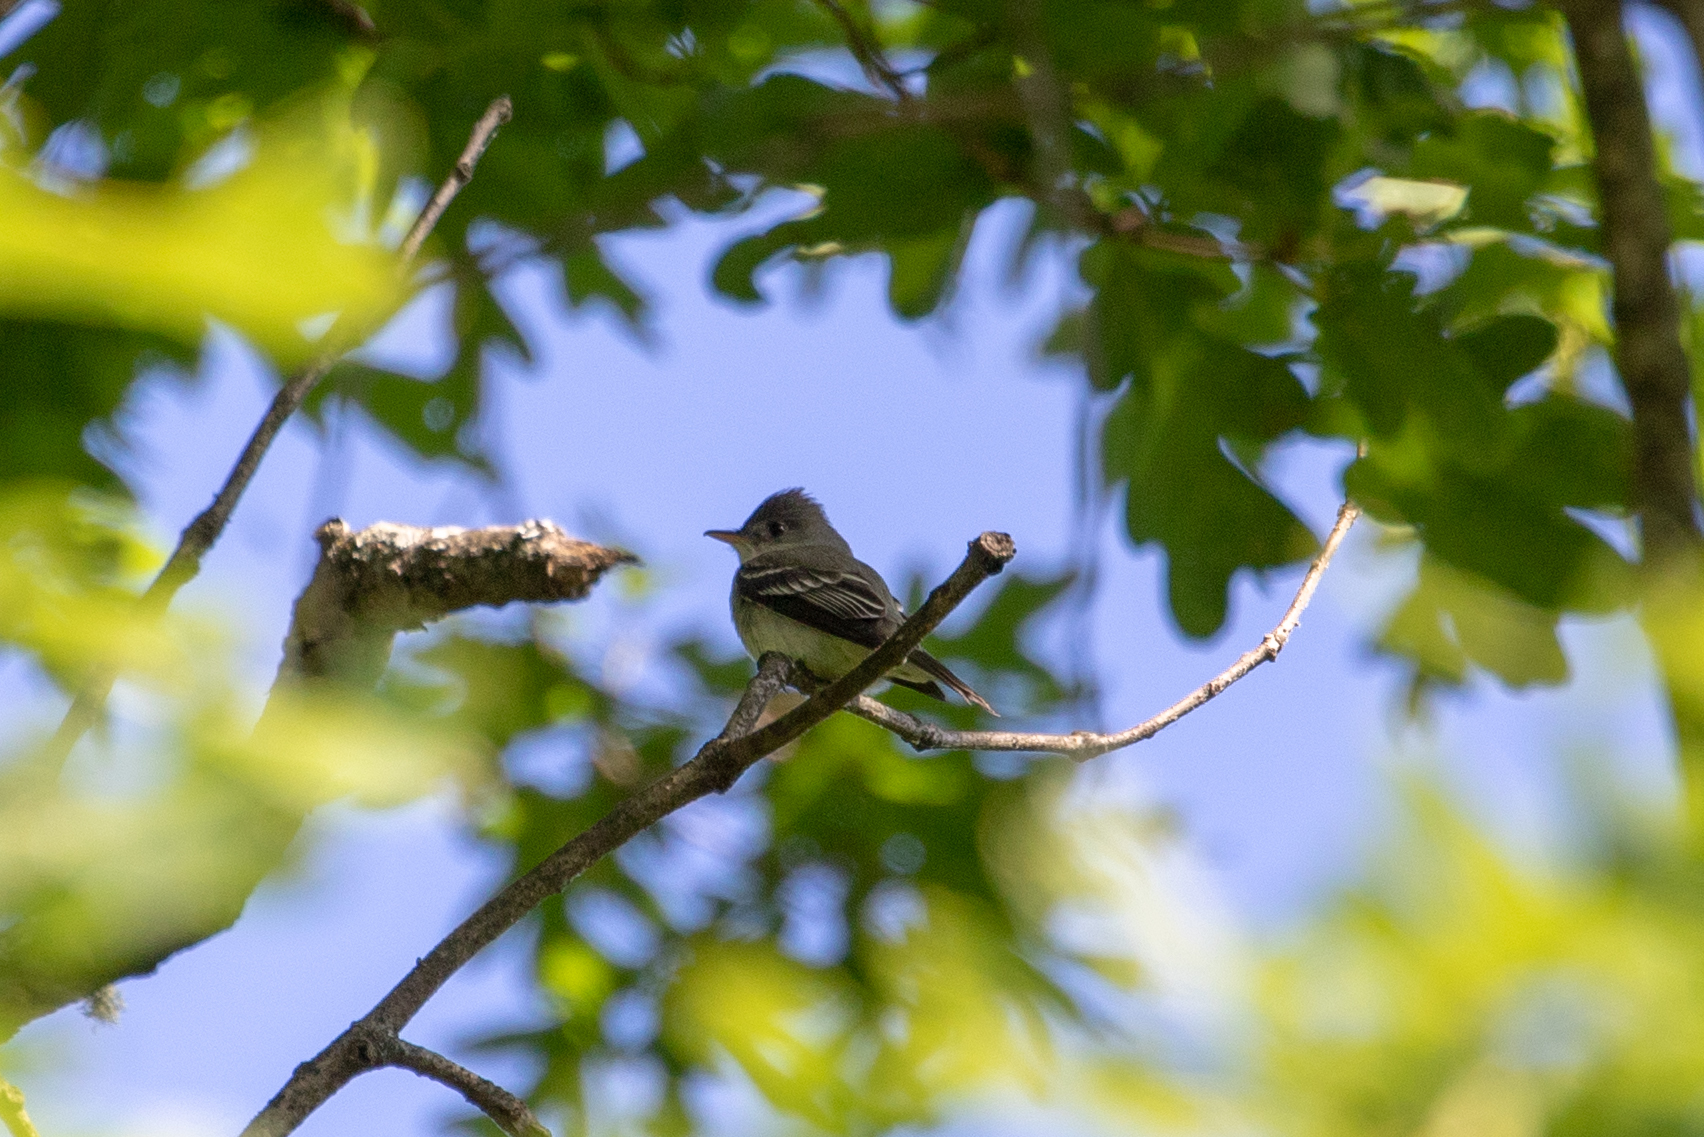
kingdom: Animalia
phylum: Chordata
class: Aves
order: Passeriformes
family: Tyrannidae
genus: Contopus
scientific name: Contopus virens
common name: Eastern wood-pewee
